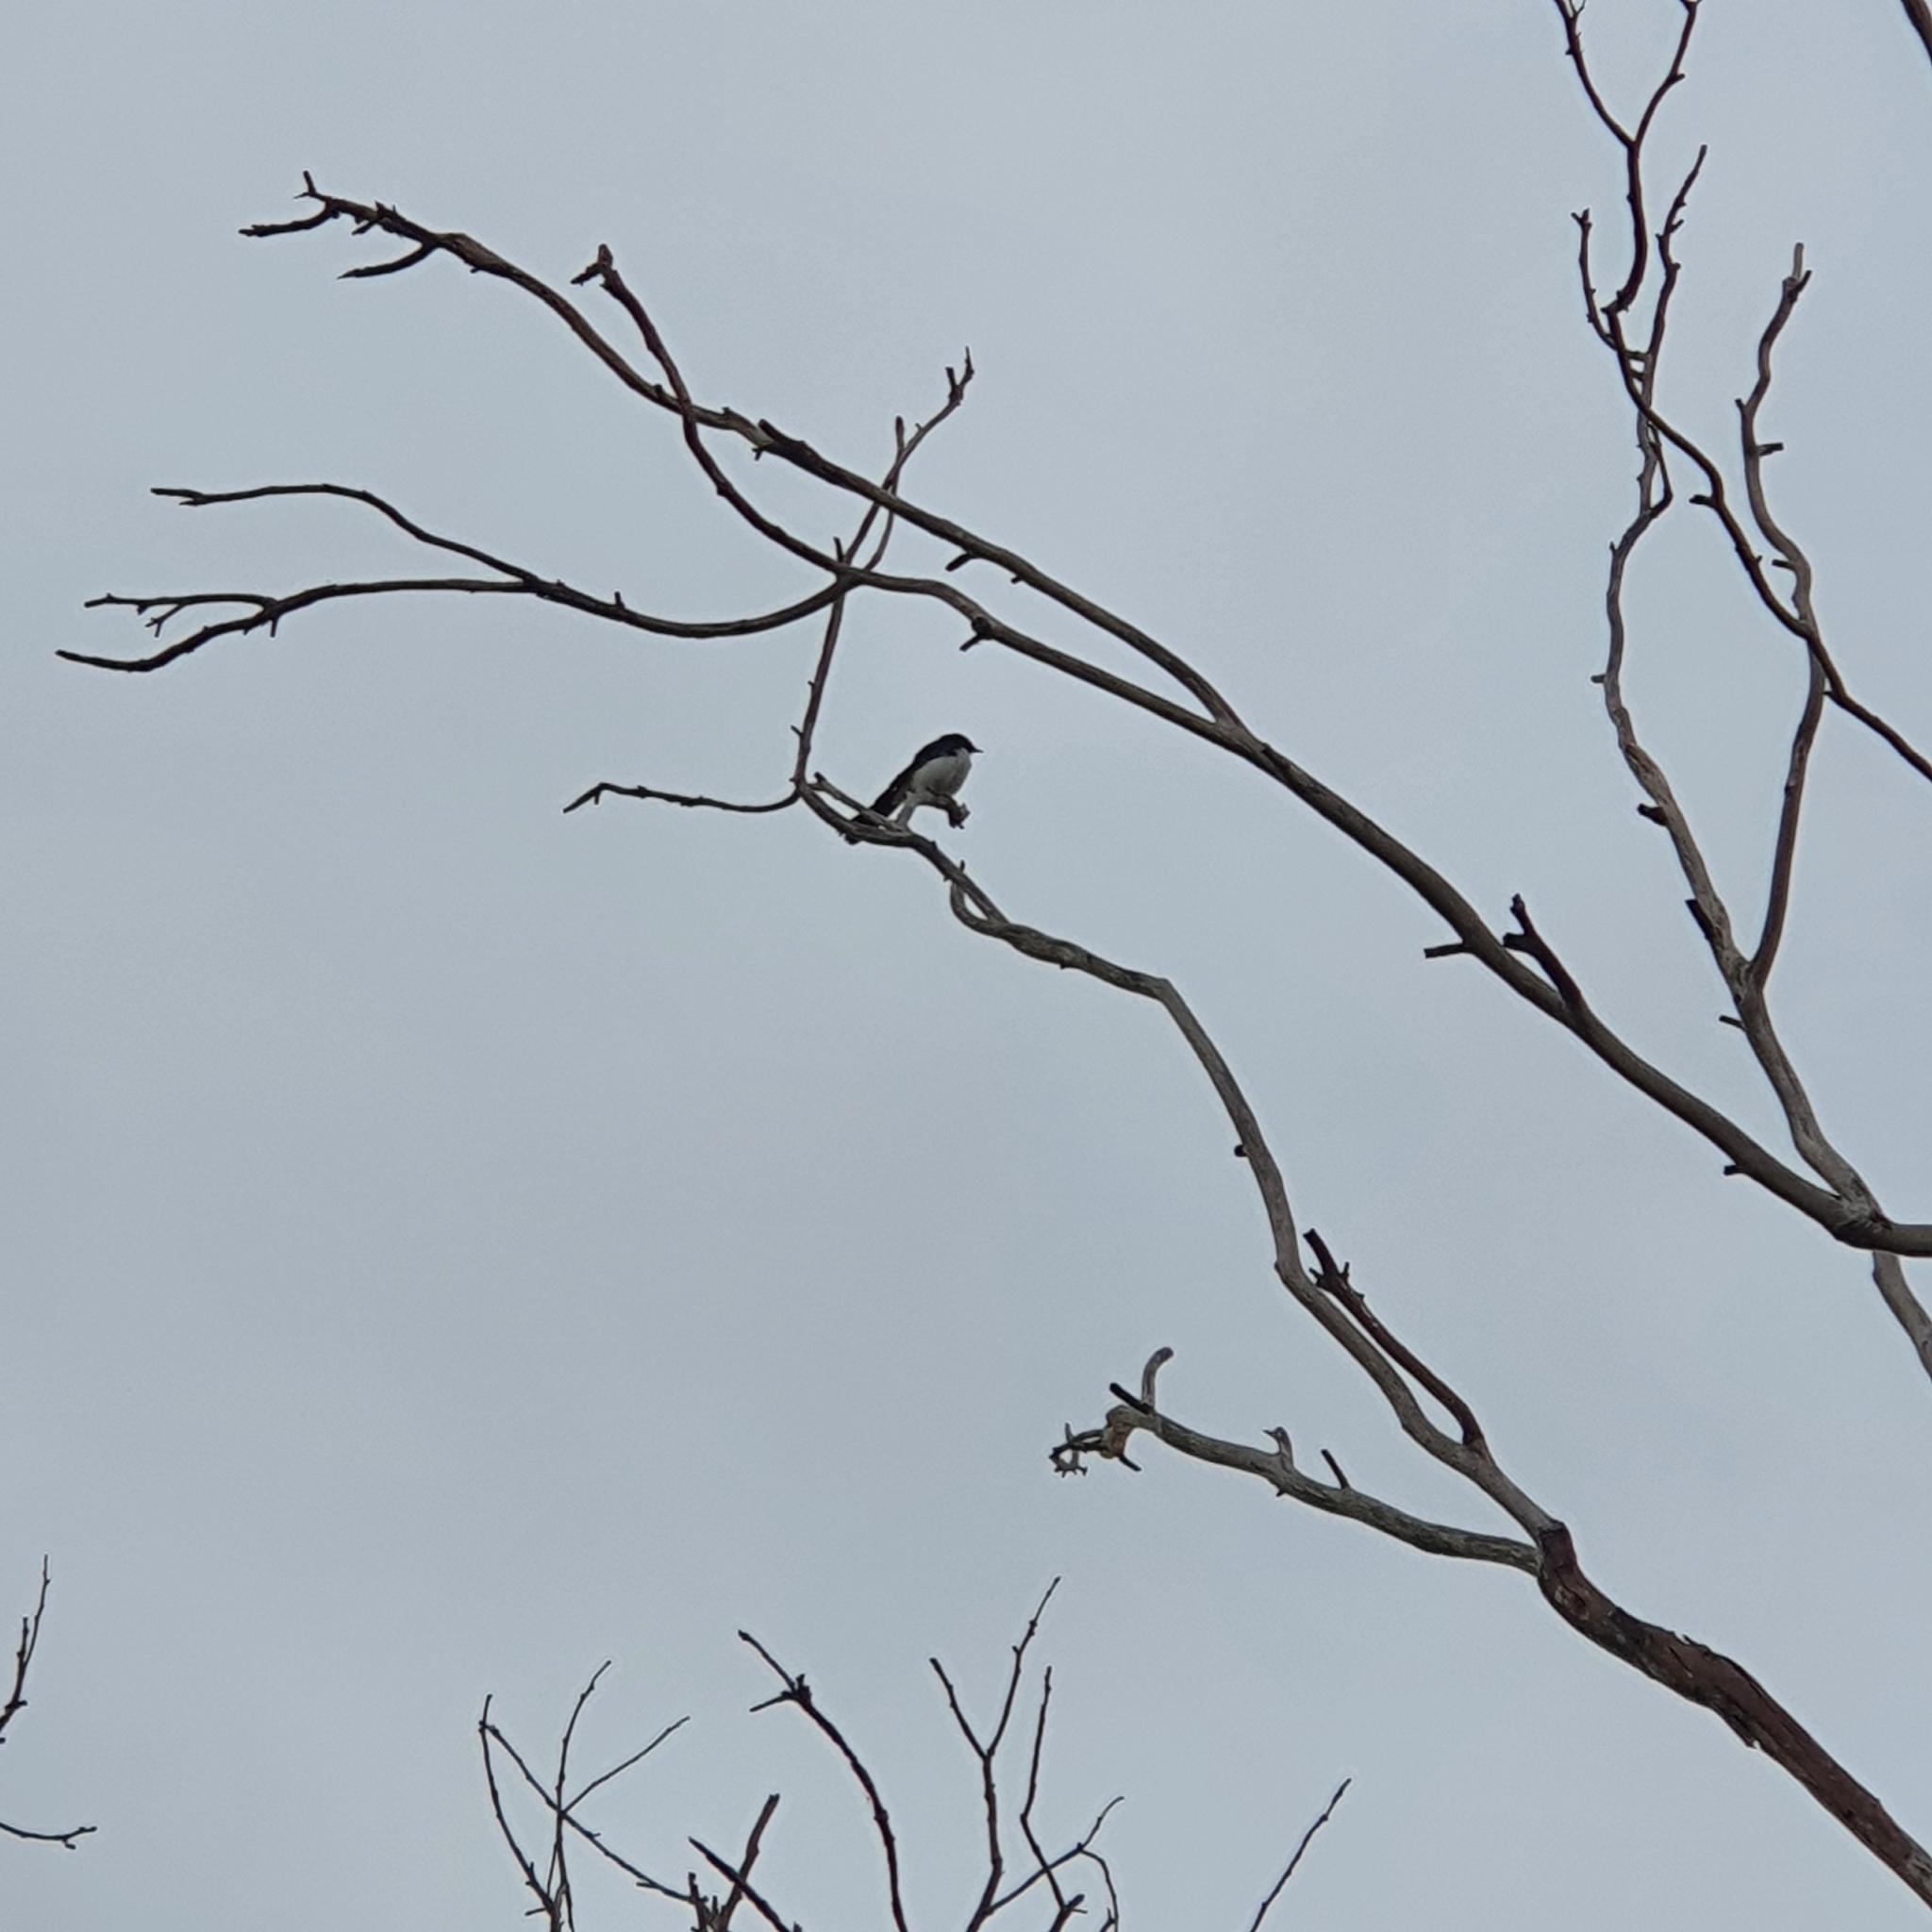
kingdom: Animalia
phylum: Chordata
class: Aves
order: Passeriformes
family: Rhipiduridae
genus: Rhipidura
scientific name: Rhipidura leucophrys
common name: Willie wagtail
